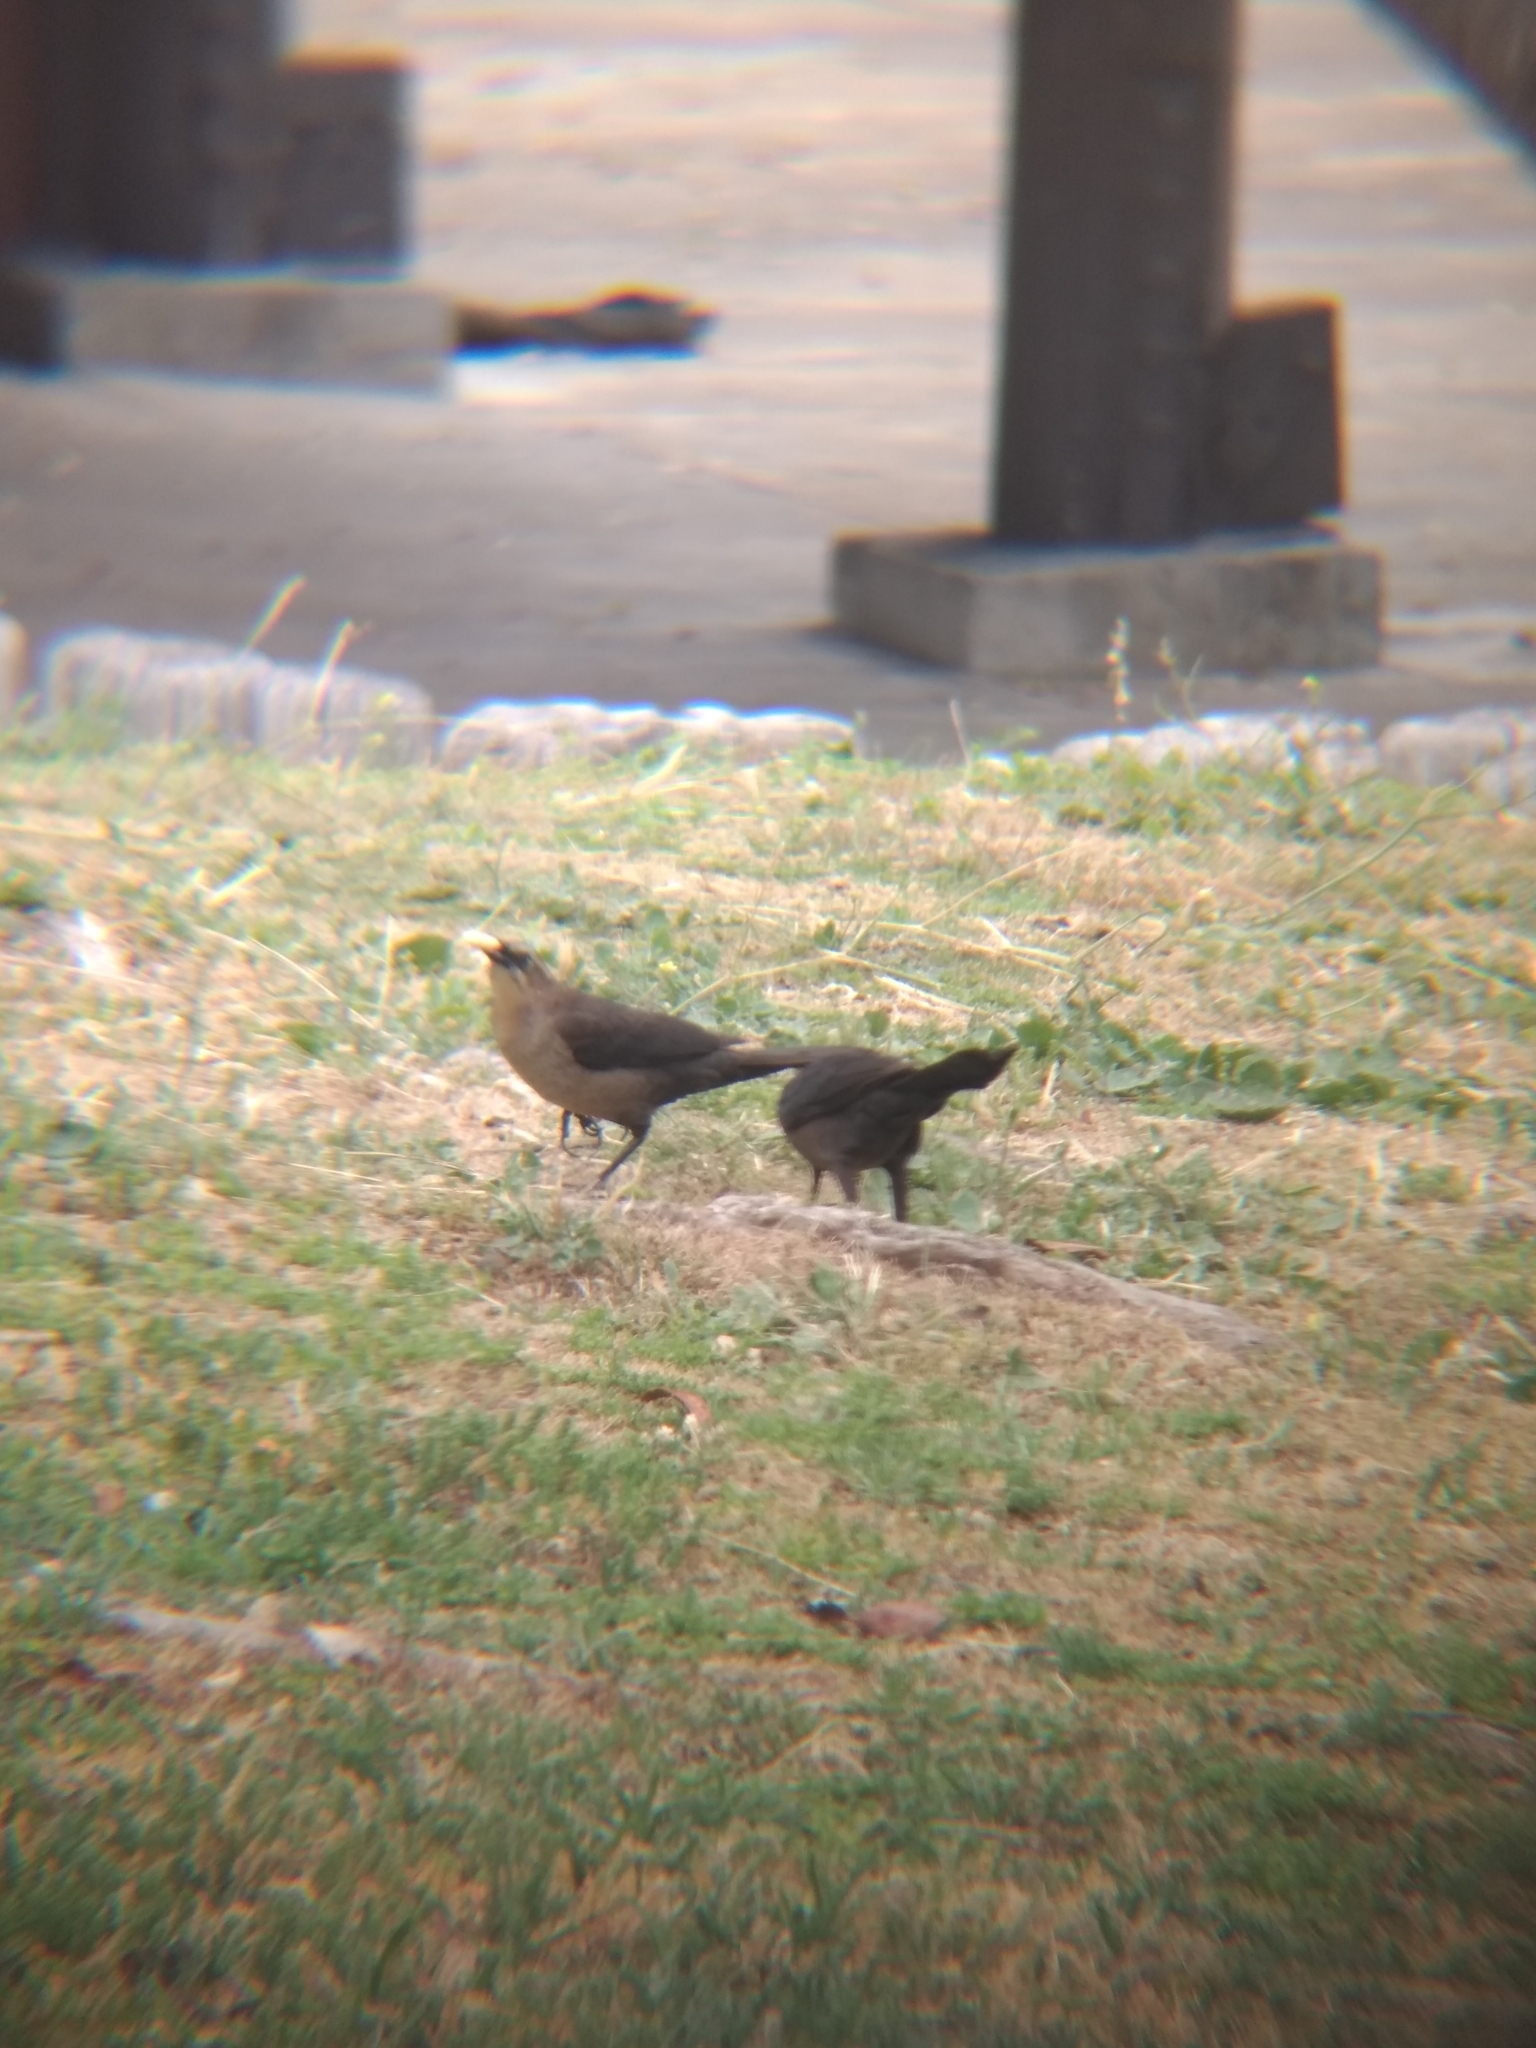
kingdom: Animalia
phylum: Chordata
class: Aves
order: Passeriformes
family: Icteridae
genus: Quiscalus
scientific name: Quiscalus mexicanus
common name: Great-tailed grackle
